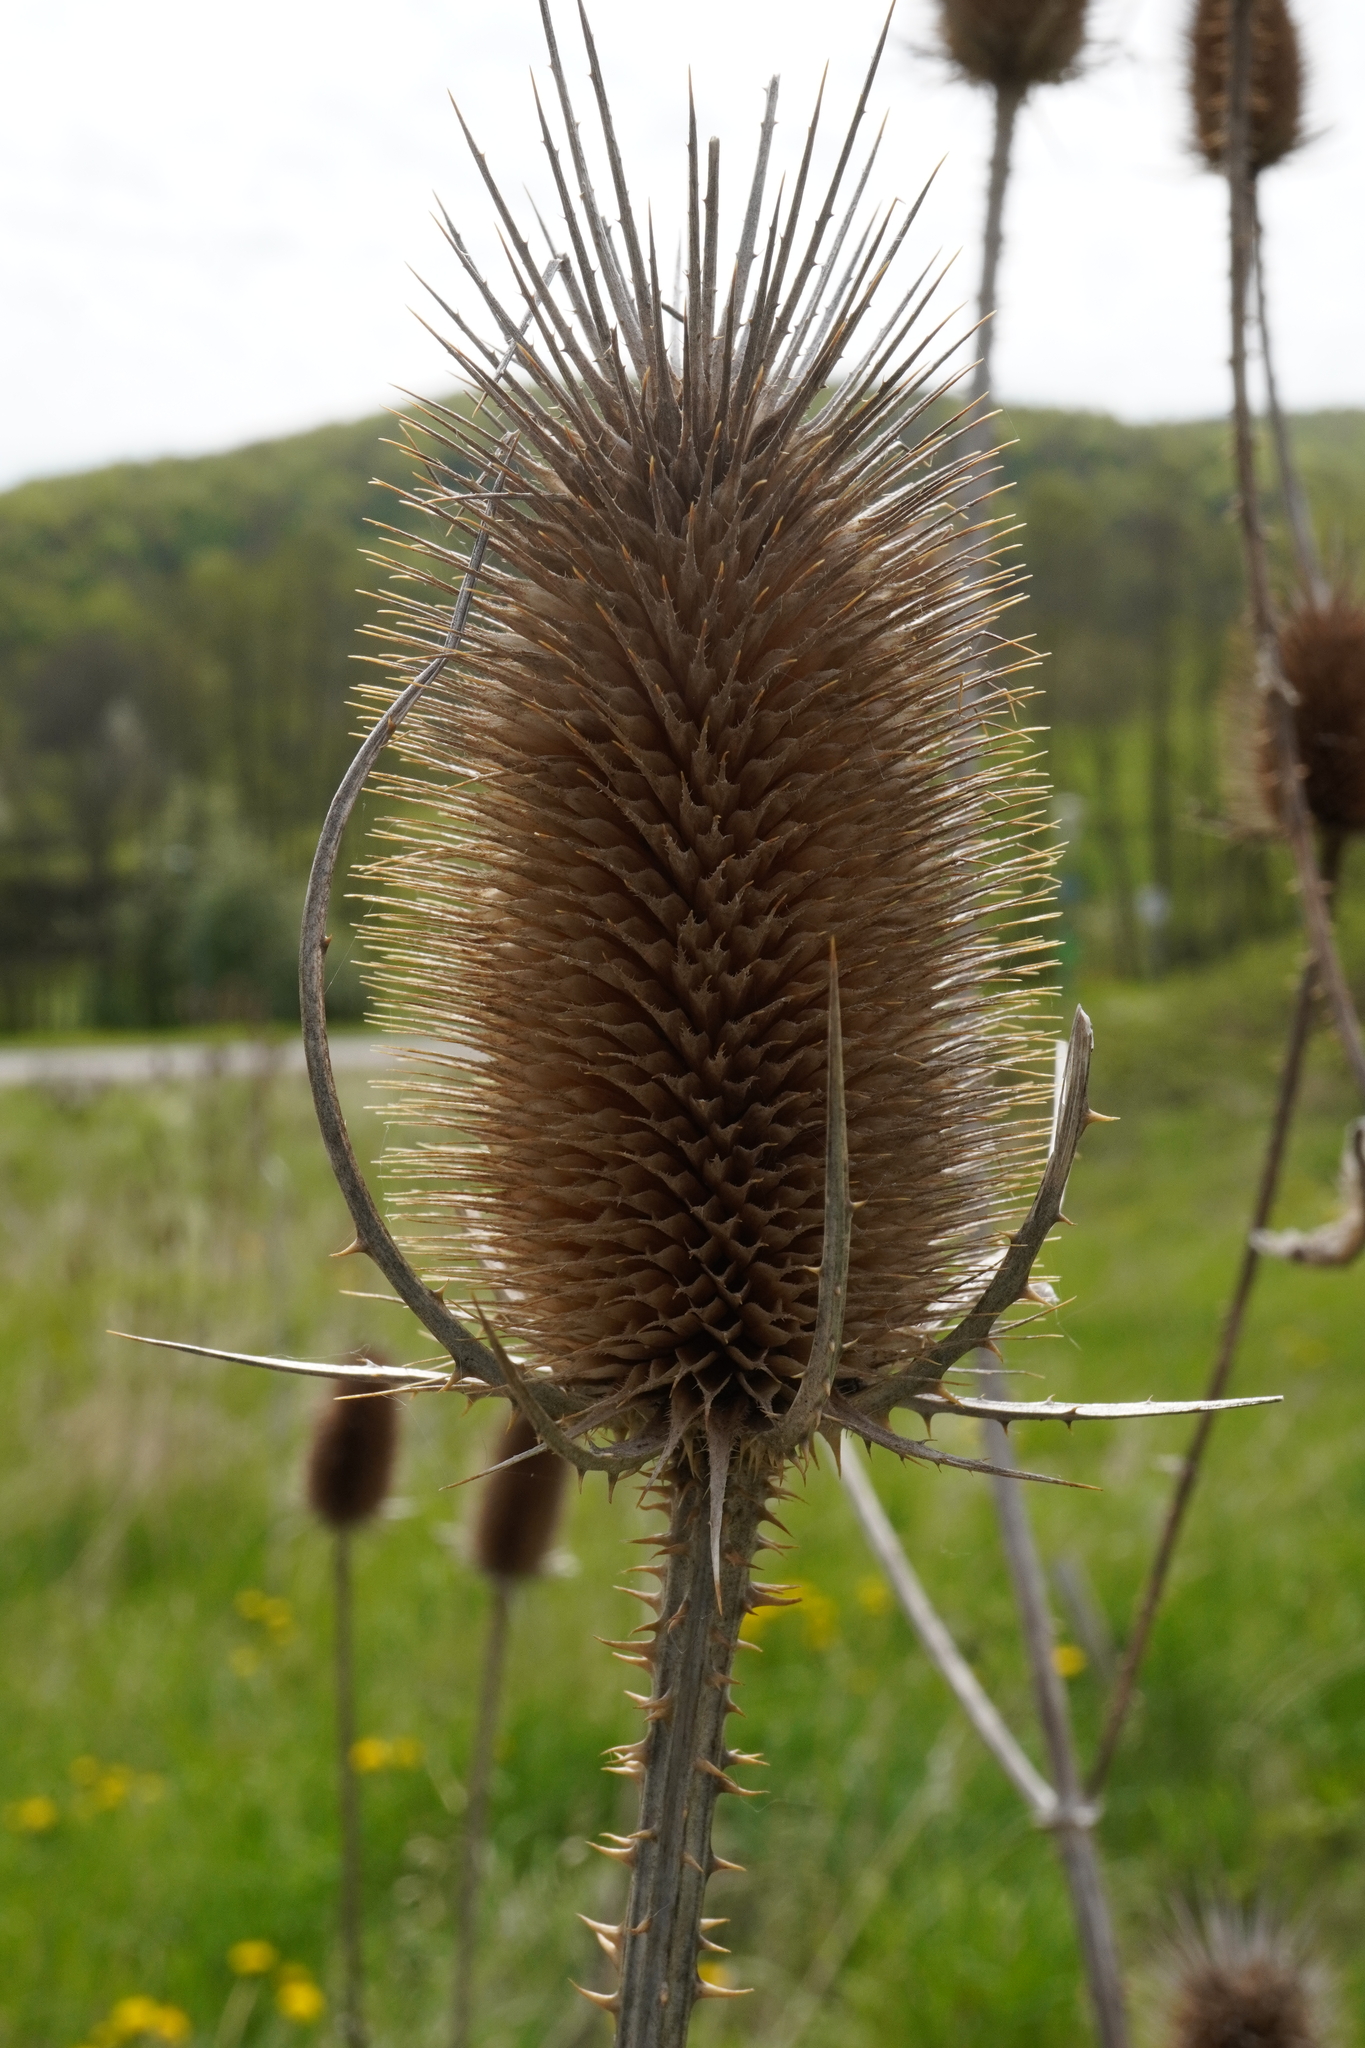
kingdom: Plantae
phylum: Tracheophyta
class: Magnoliopsida
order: Dipsacales
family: Caprifoliaceae
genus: Dipsacus
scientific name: Dipsacus fullonum
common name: Teasel
